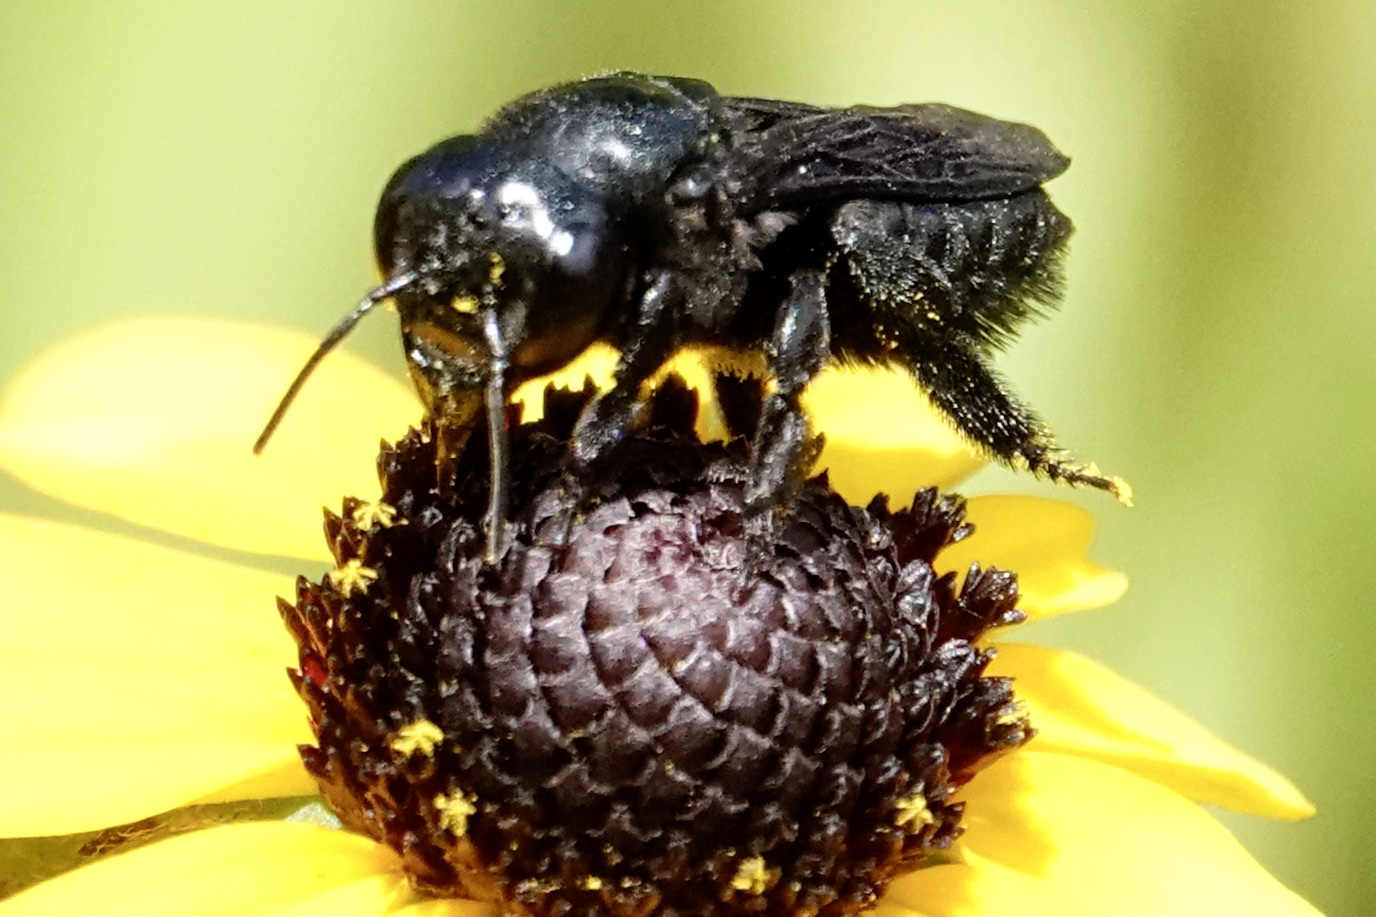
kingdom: Animalia
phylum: Arthropoda
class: Insecta
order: Hymenoptera
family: Megachilidae
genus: Megachile
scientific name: Megachile xylocopoides
